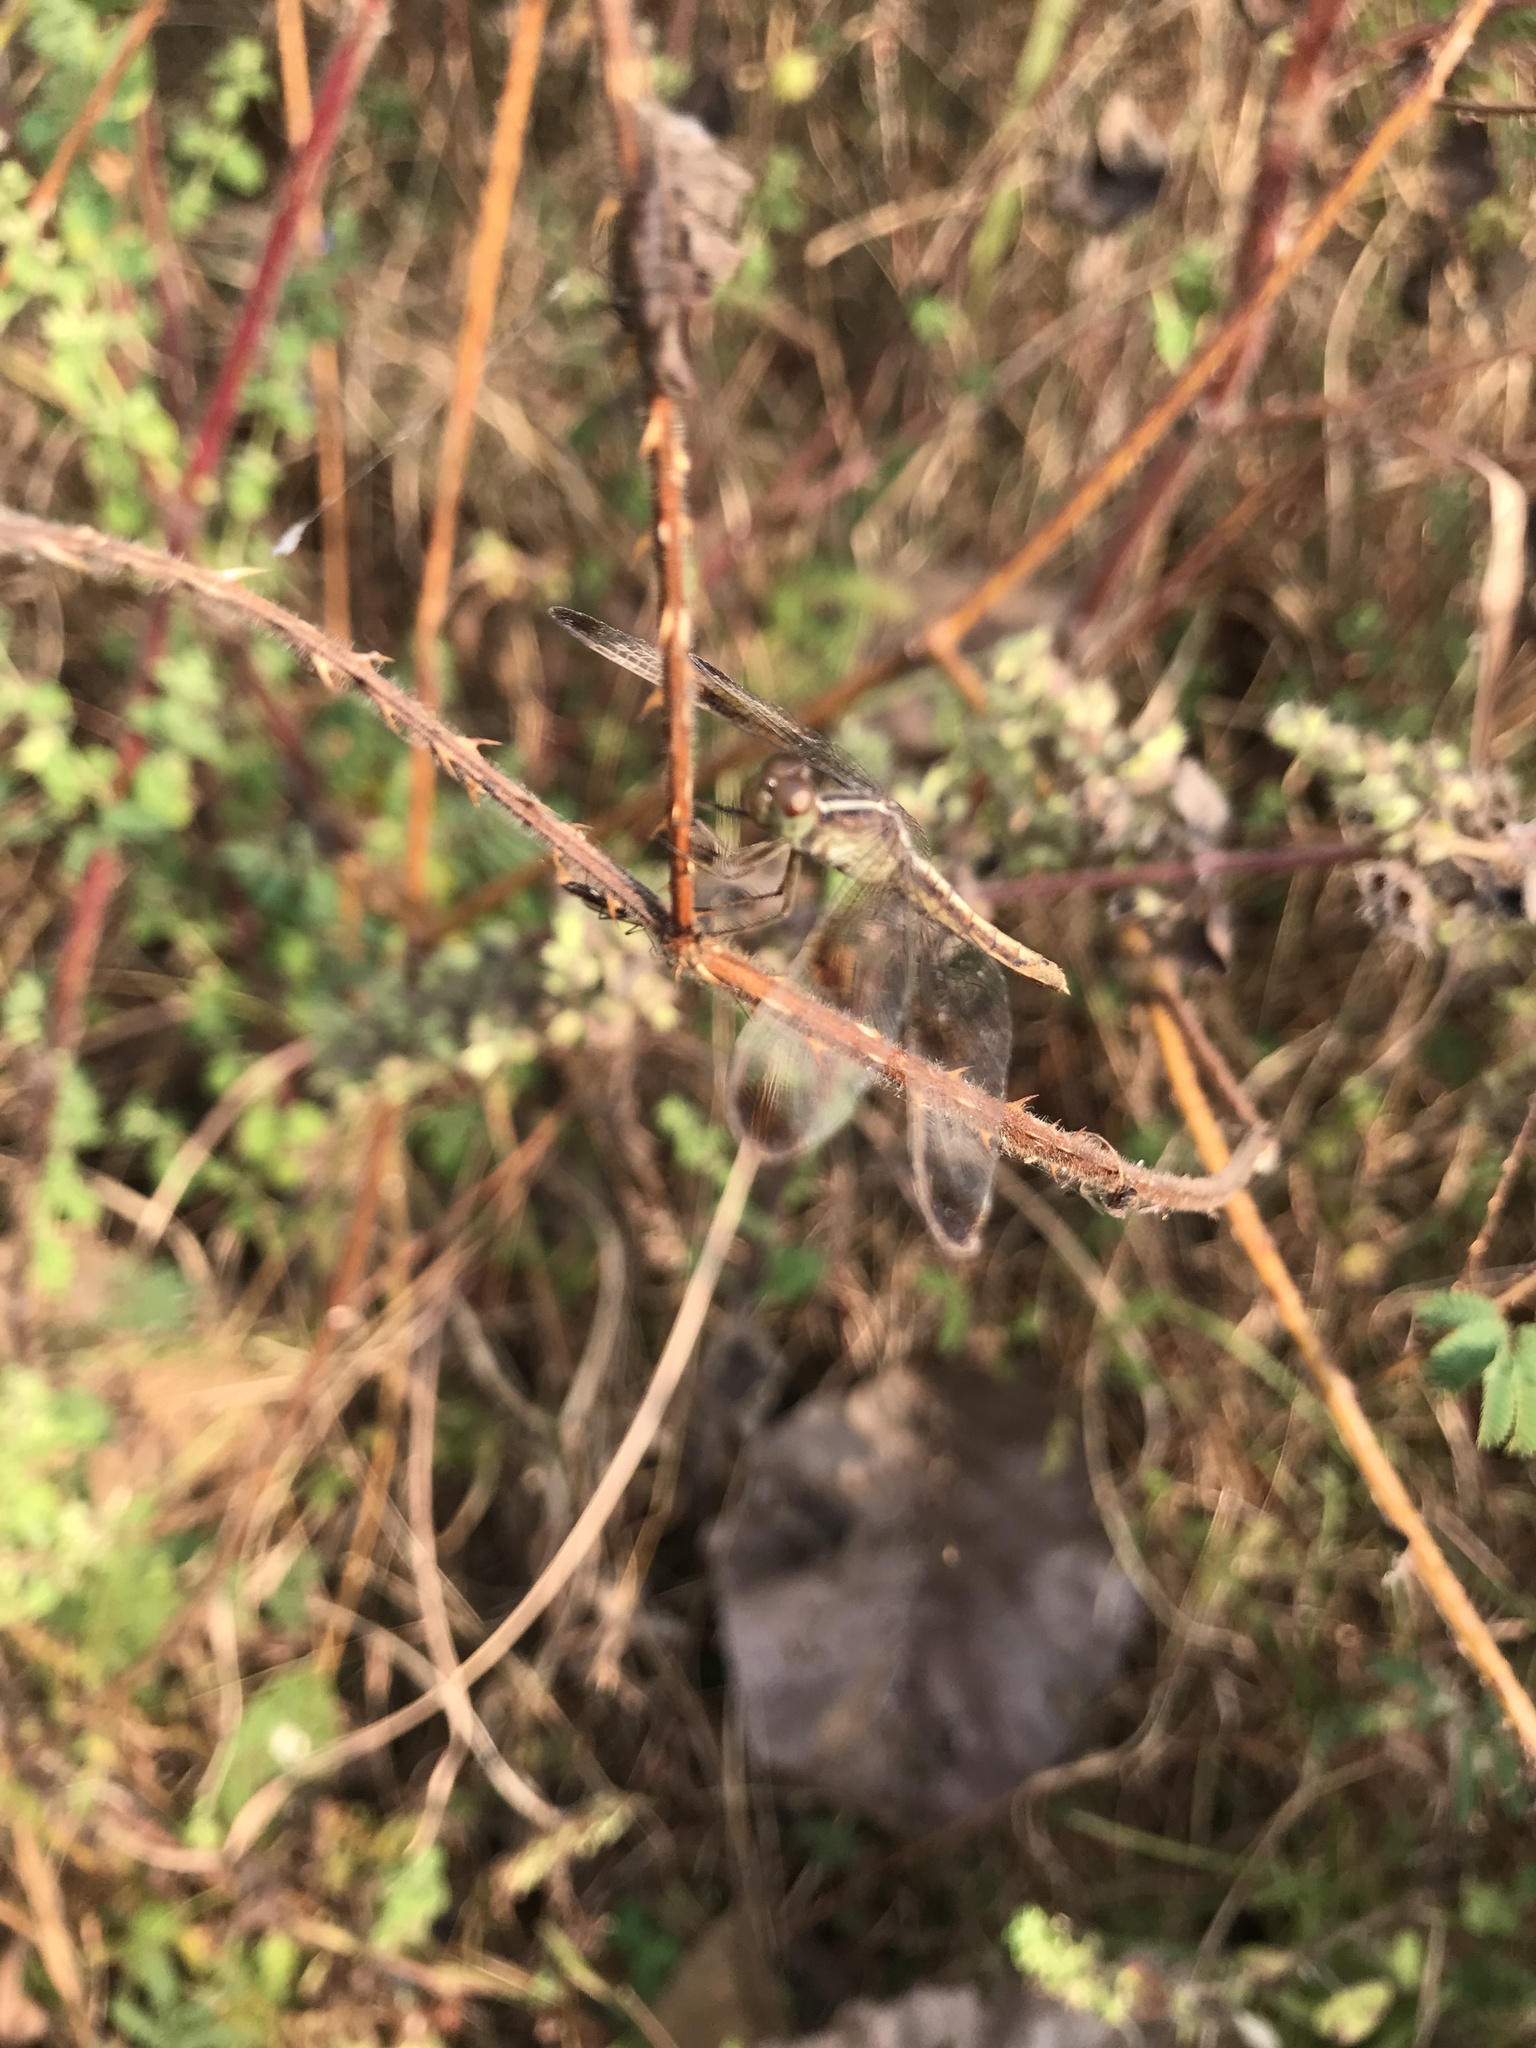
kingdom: Animalia
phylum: Arthropoda
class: Insecta
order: Odonata
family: Libellulidae
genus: Neurothemis
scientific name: Neurothemis tullia
